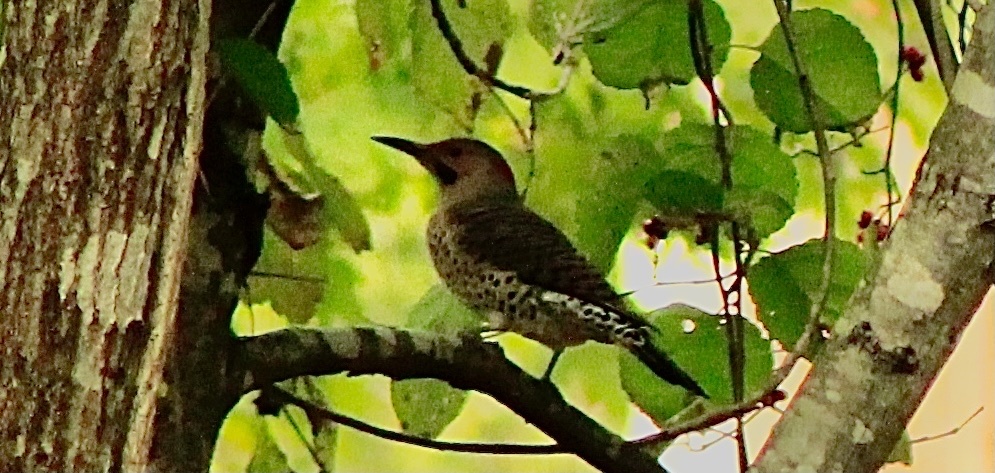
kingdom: Animalia
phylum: Chordata
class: Aves
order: Piciformes
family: Picidae
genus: Colaptes
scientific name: Colaptes auratus
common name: Northern flicker
